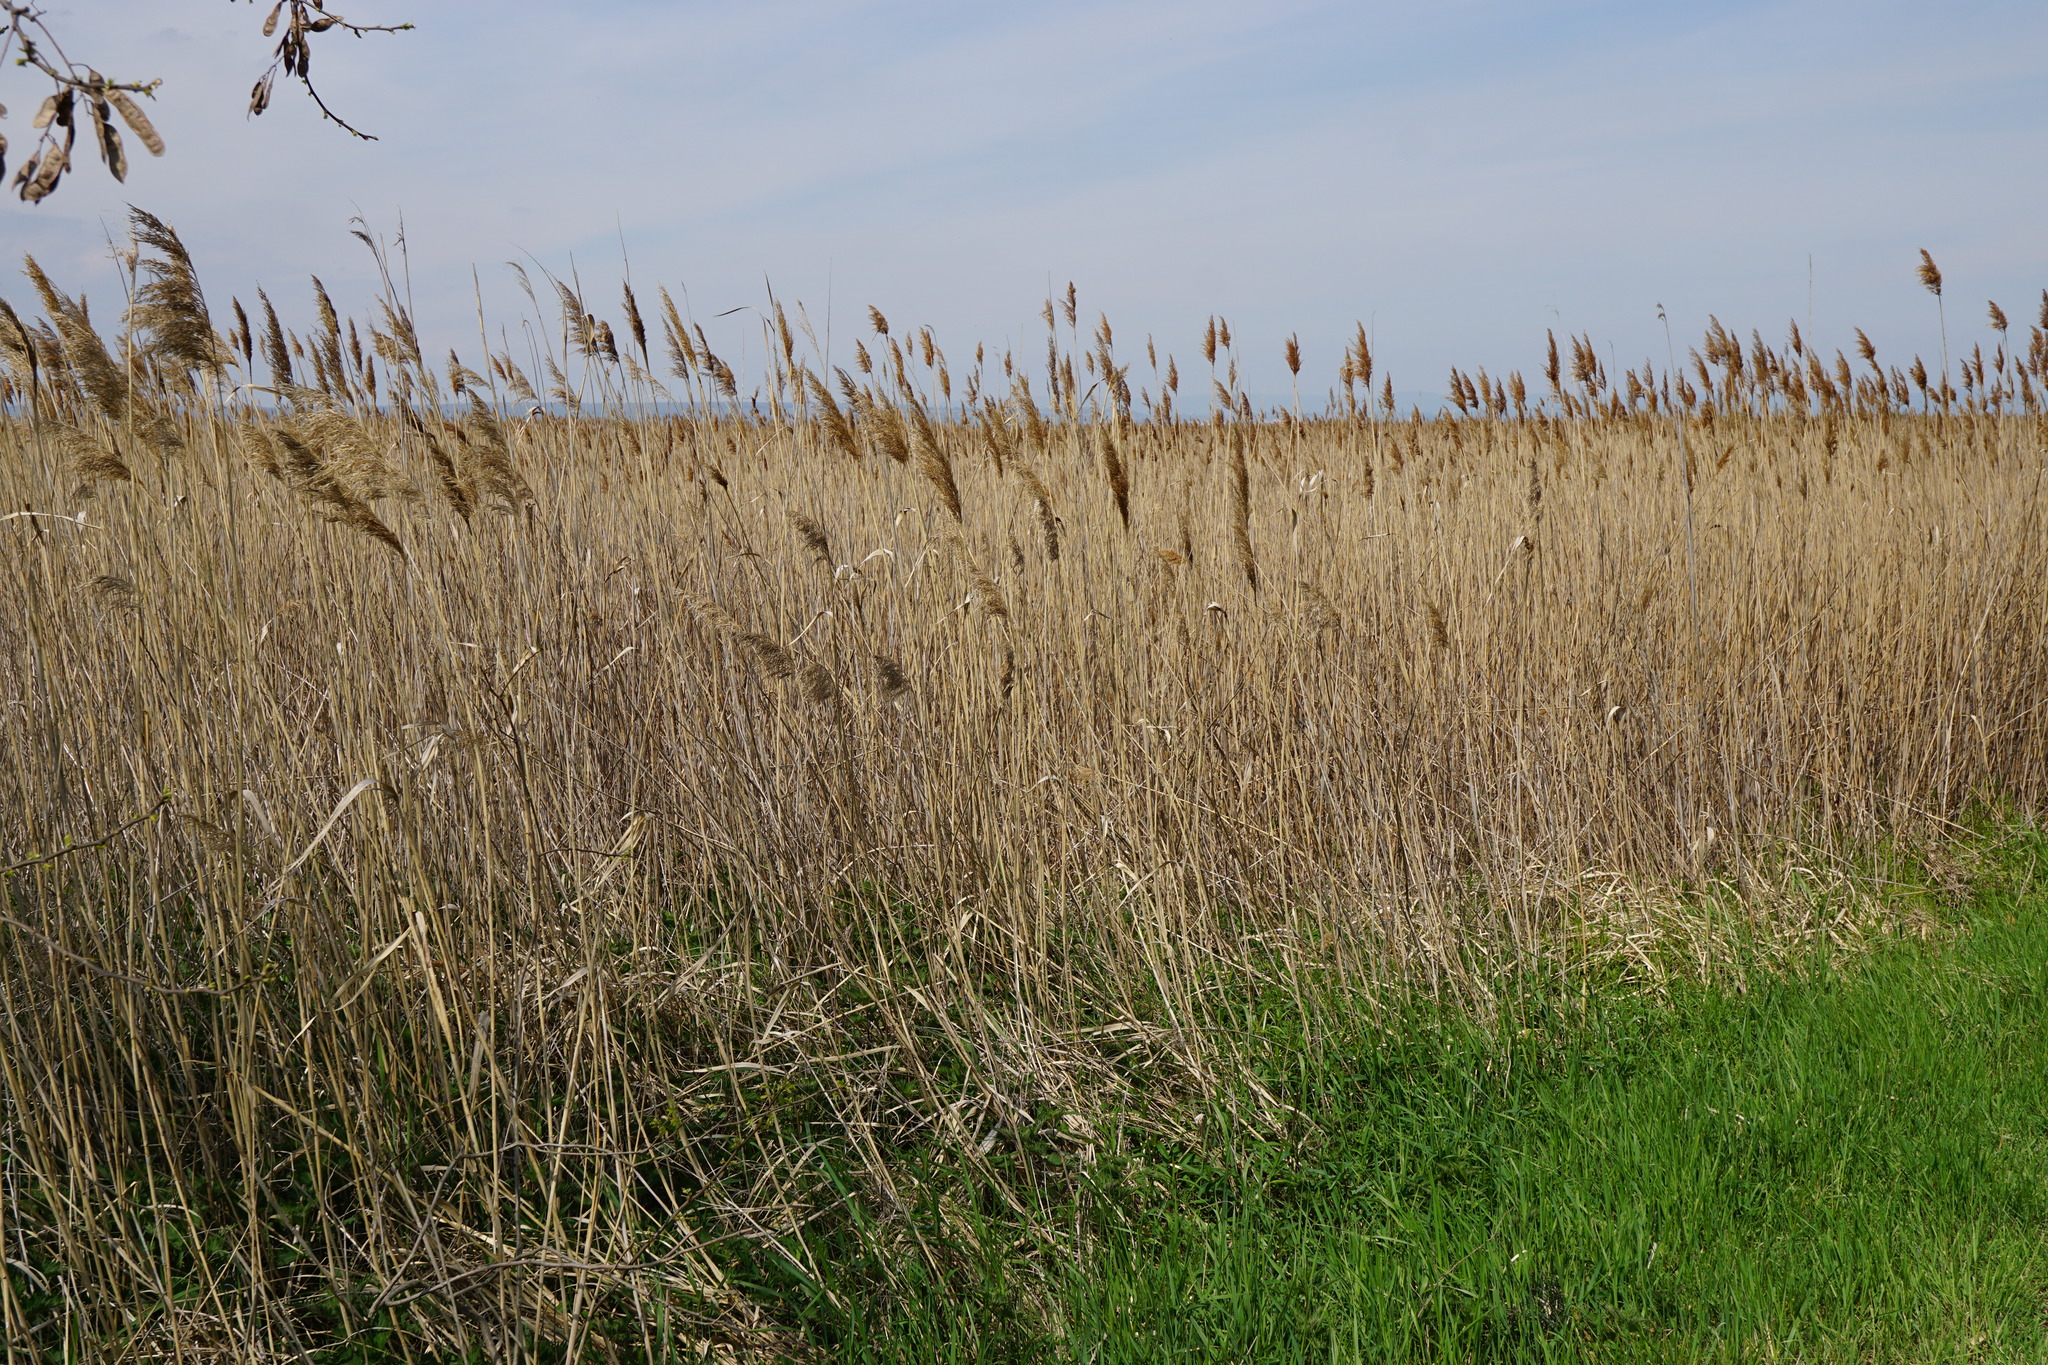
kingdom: Plantae
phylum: Tracheophyta
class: Liliopsida
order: Poales
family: Poaceae
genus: Phragmites
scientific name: Phragmites australis
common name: Common reed
